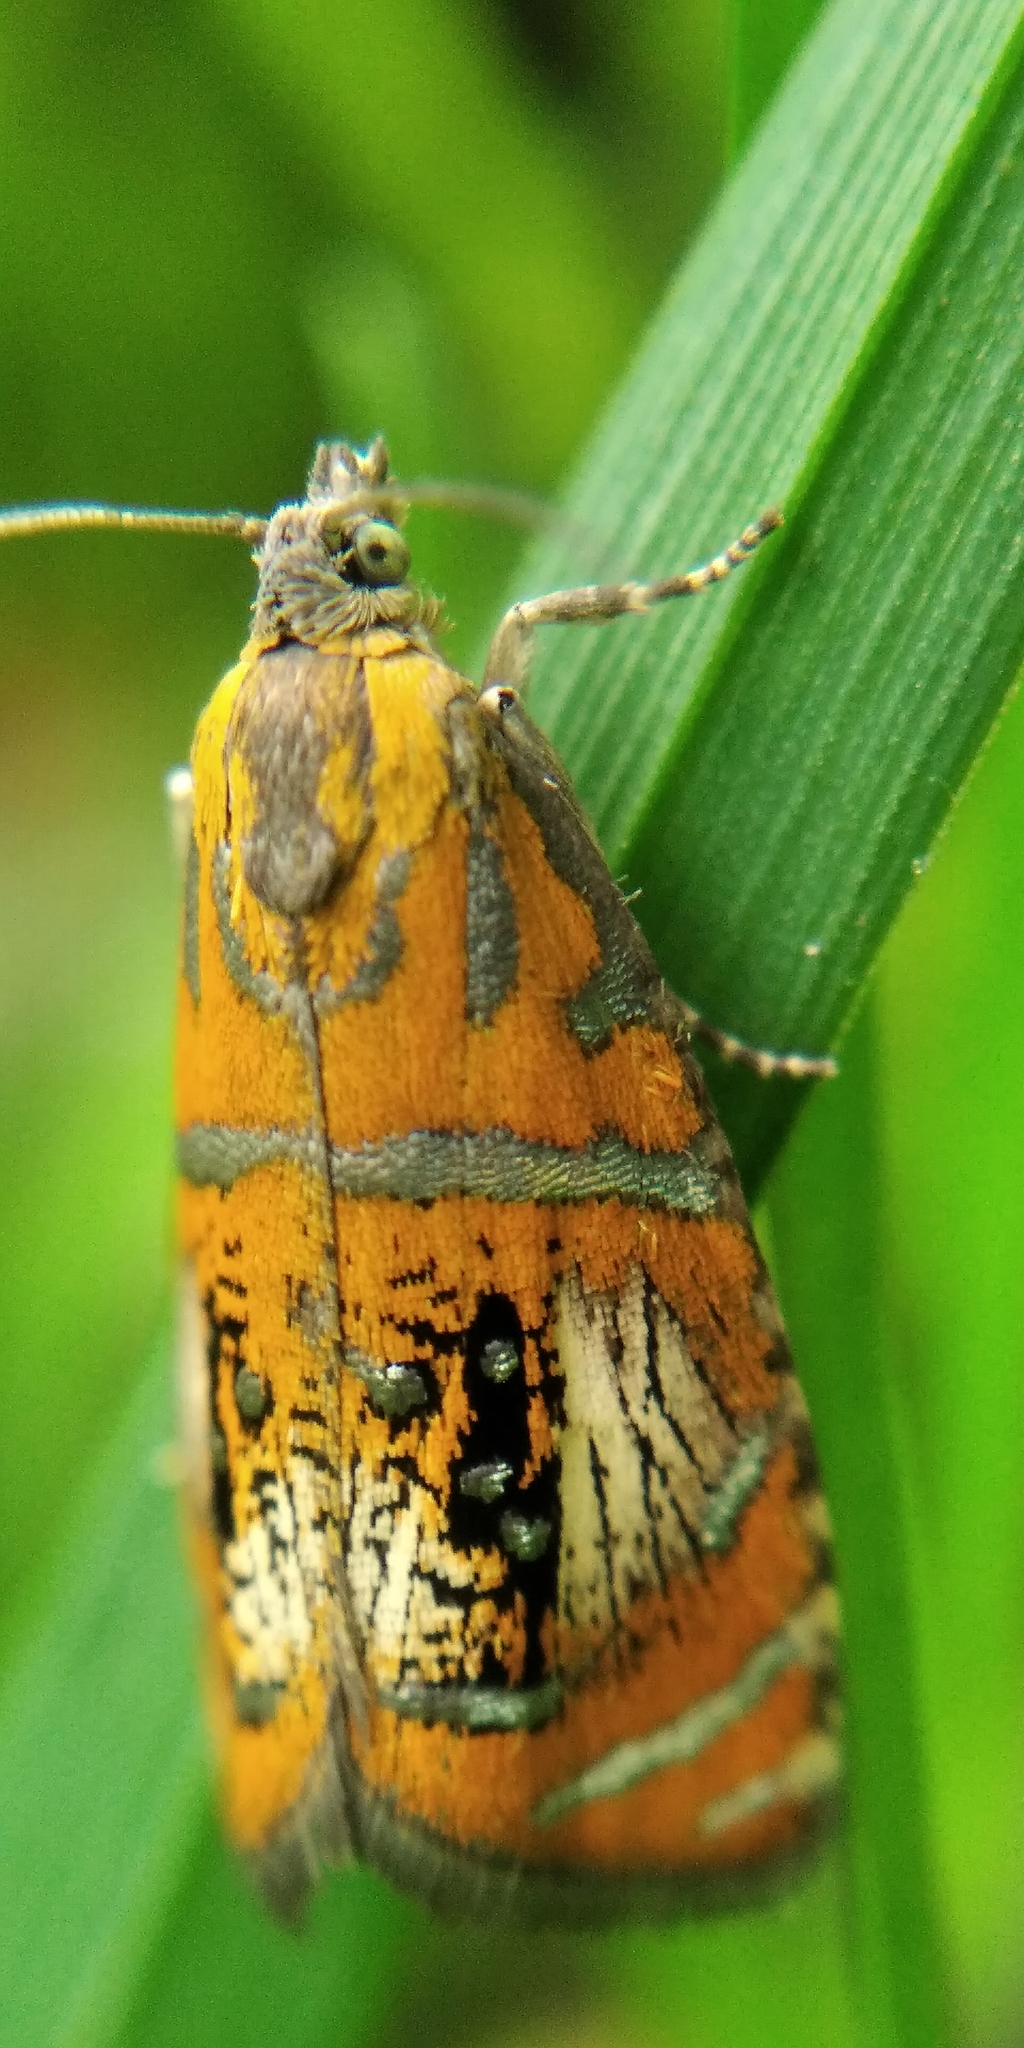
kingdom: Animalia
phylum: Arthropoda
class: Insecta
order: Lepidoptera
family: Tortricidae
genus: Olethreutes
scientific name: Olethreutes arcuella
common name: Arched marble
